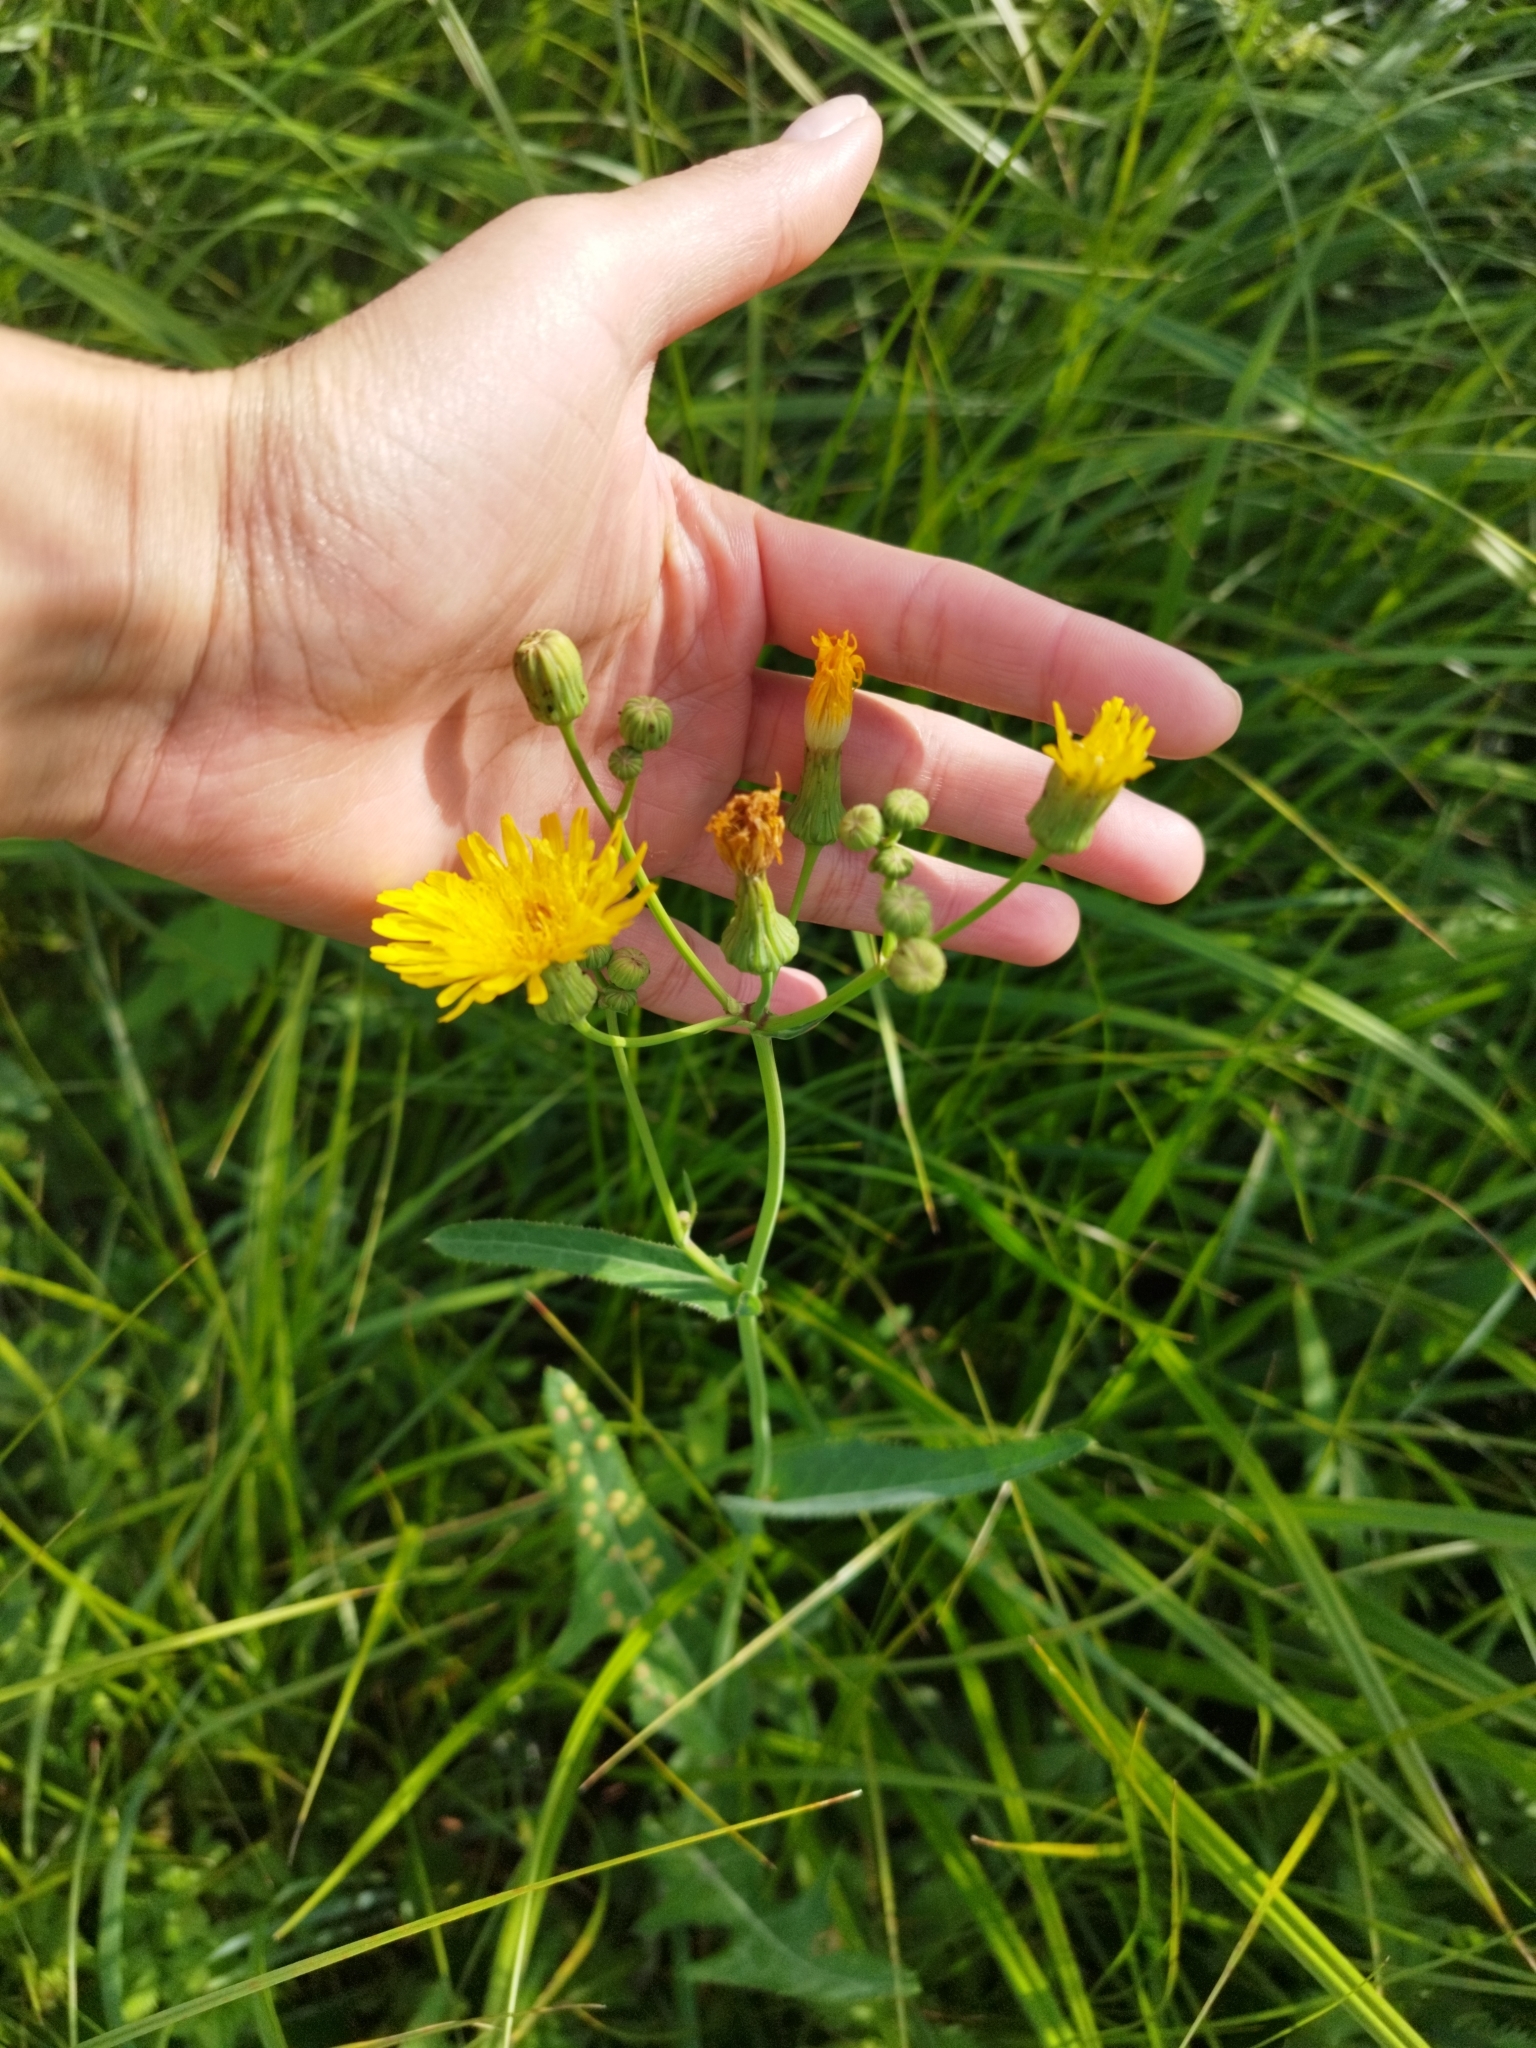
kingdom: Plantae
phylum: Tracheophyta
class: Magnoliopsida
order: Asterales
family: Asteraceae
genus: Sonchus
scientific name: Sonchus arvensis
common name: Perennial sow-thistle
